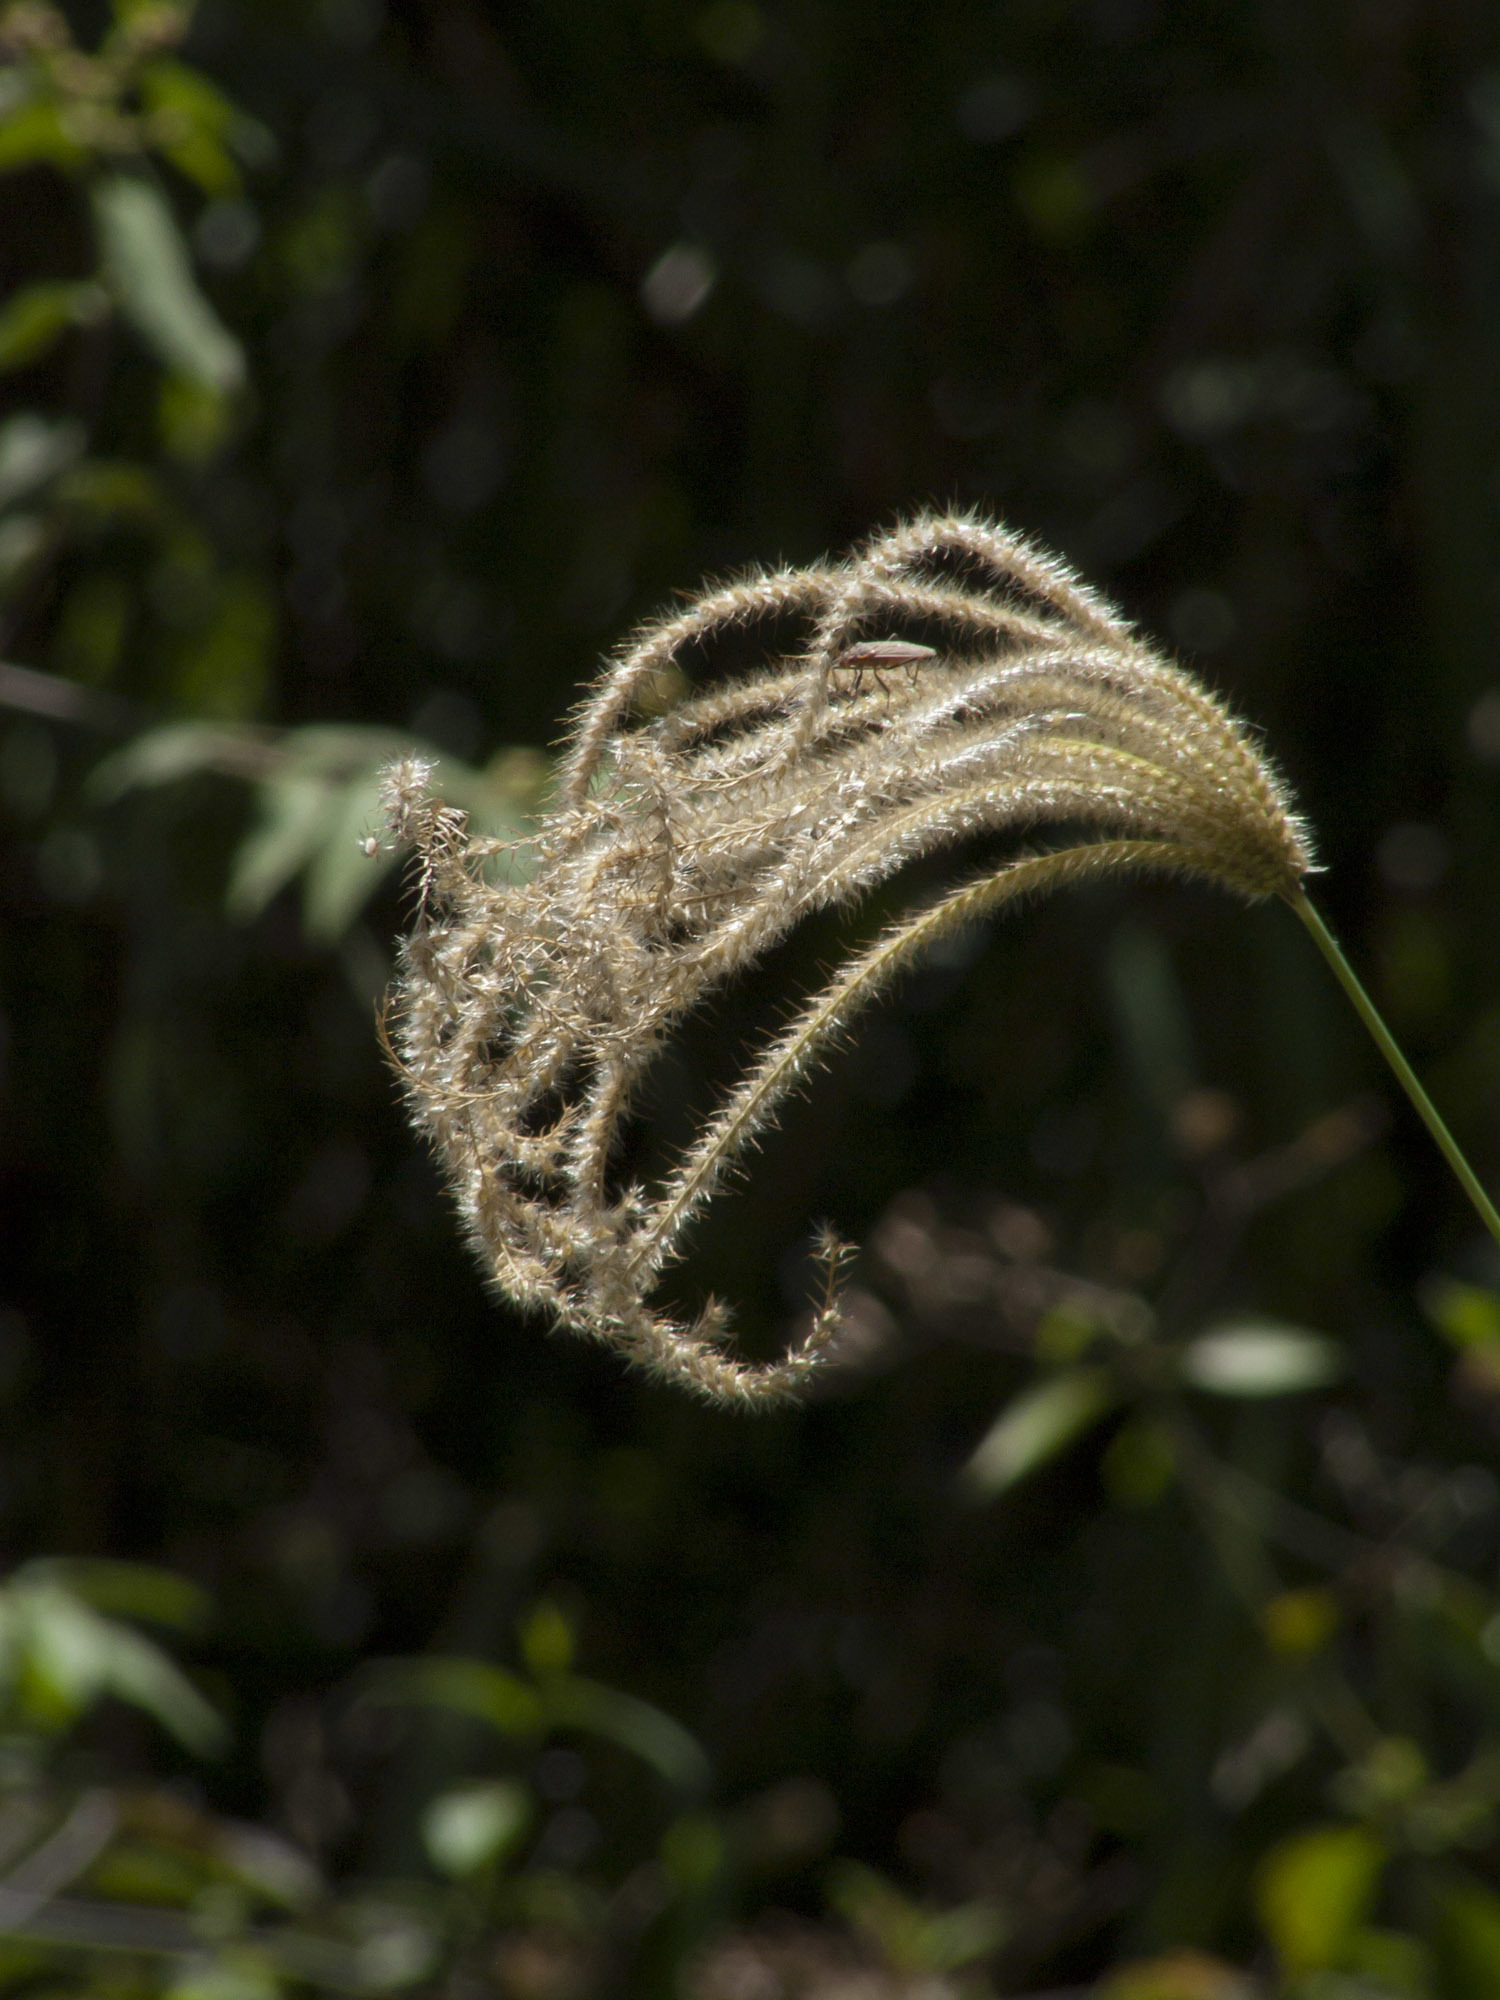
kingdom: Plantae
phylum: Tracheophyta
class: Liliopsida
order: Poales
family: Poaceae
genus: Chloris
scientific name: Chloris barbata
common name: Swollen fingergrass
